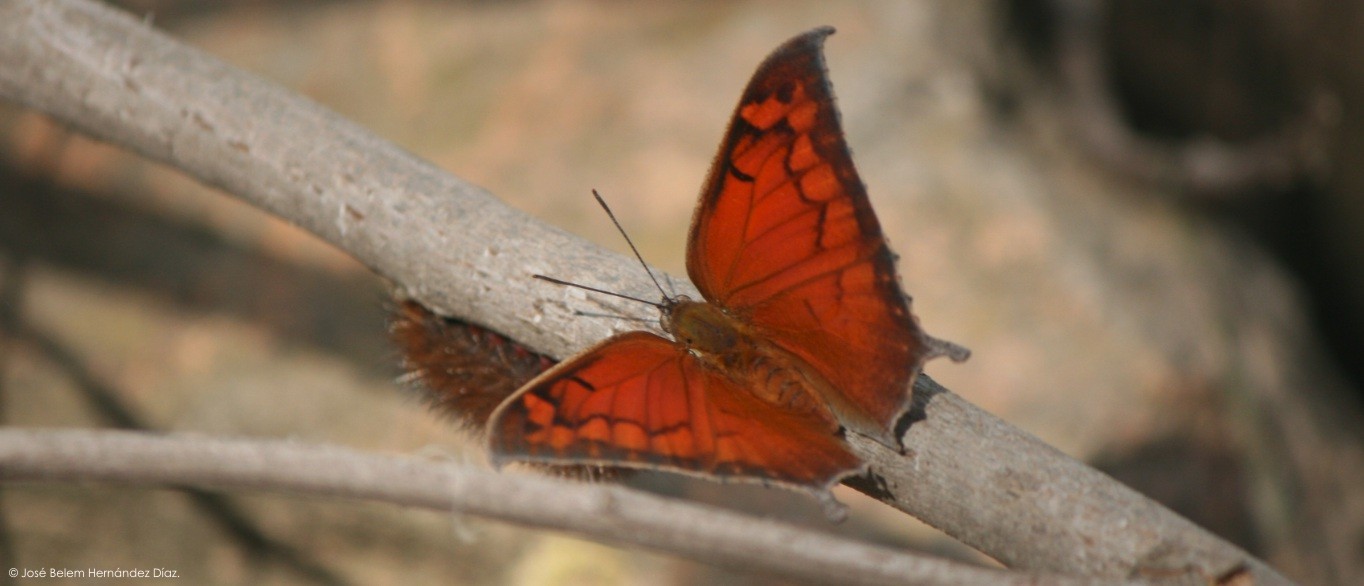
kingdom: Animalia
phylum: Arthropoda
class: Insecta
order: Lepidoptera
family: Nymphalidae
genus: Anaea
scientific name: Anaea aidea
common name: Tropical leafwing
